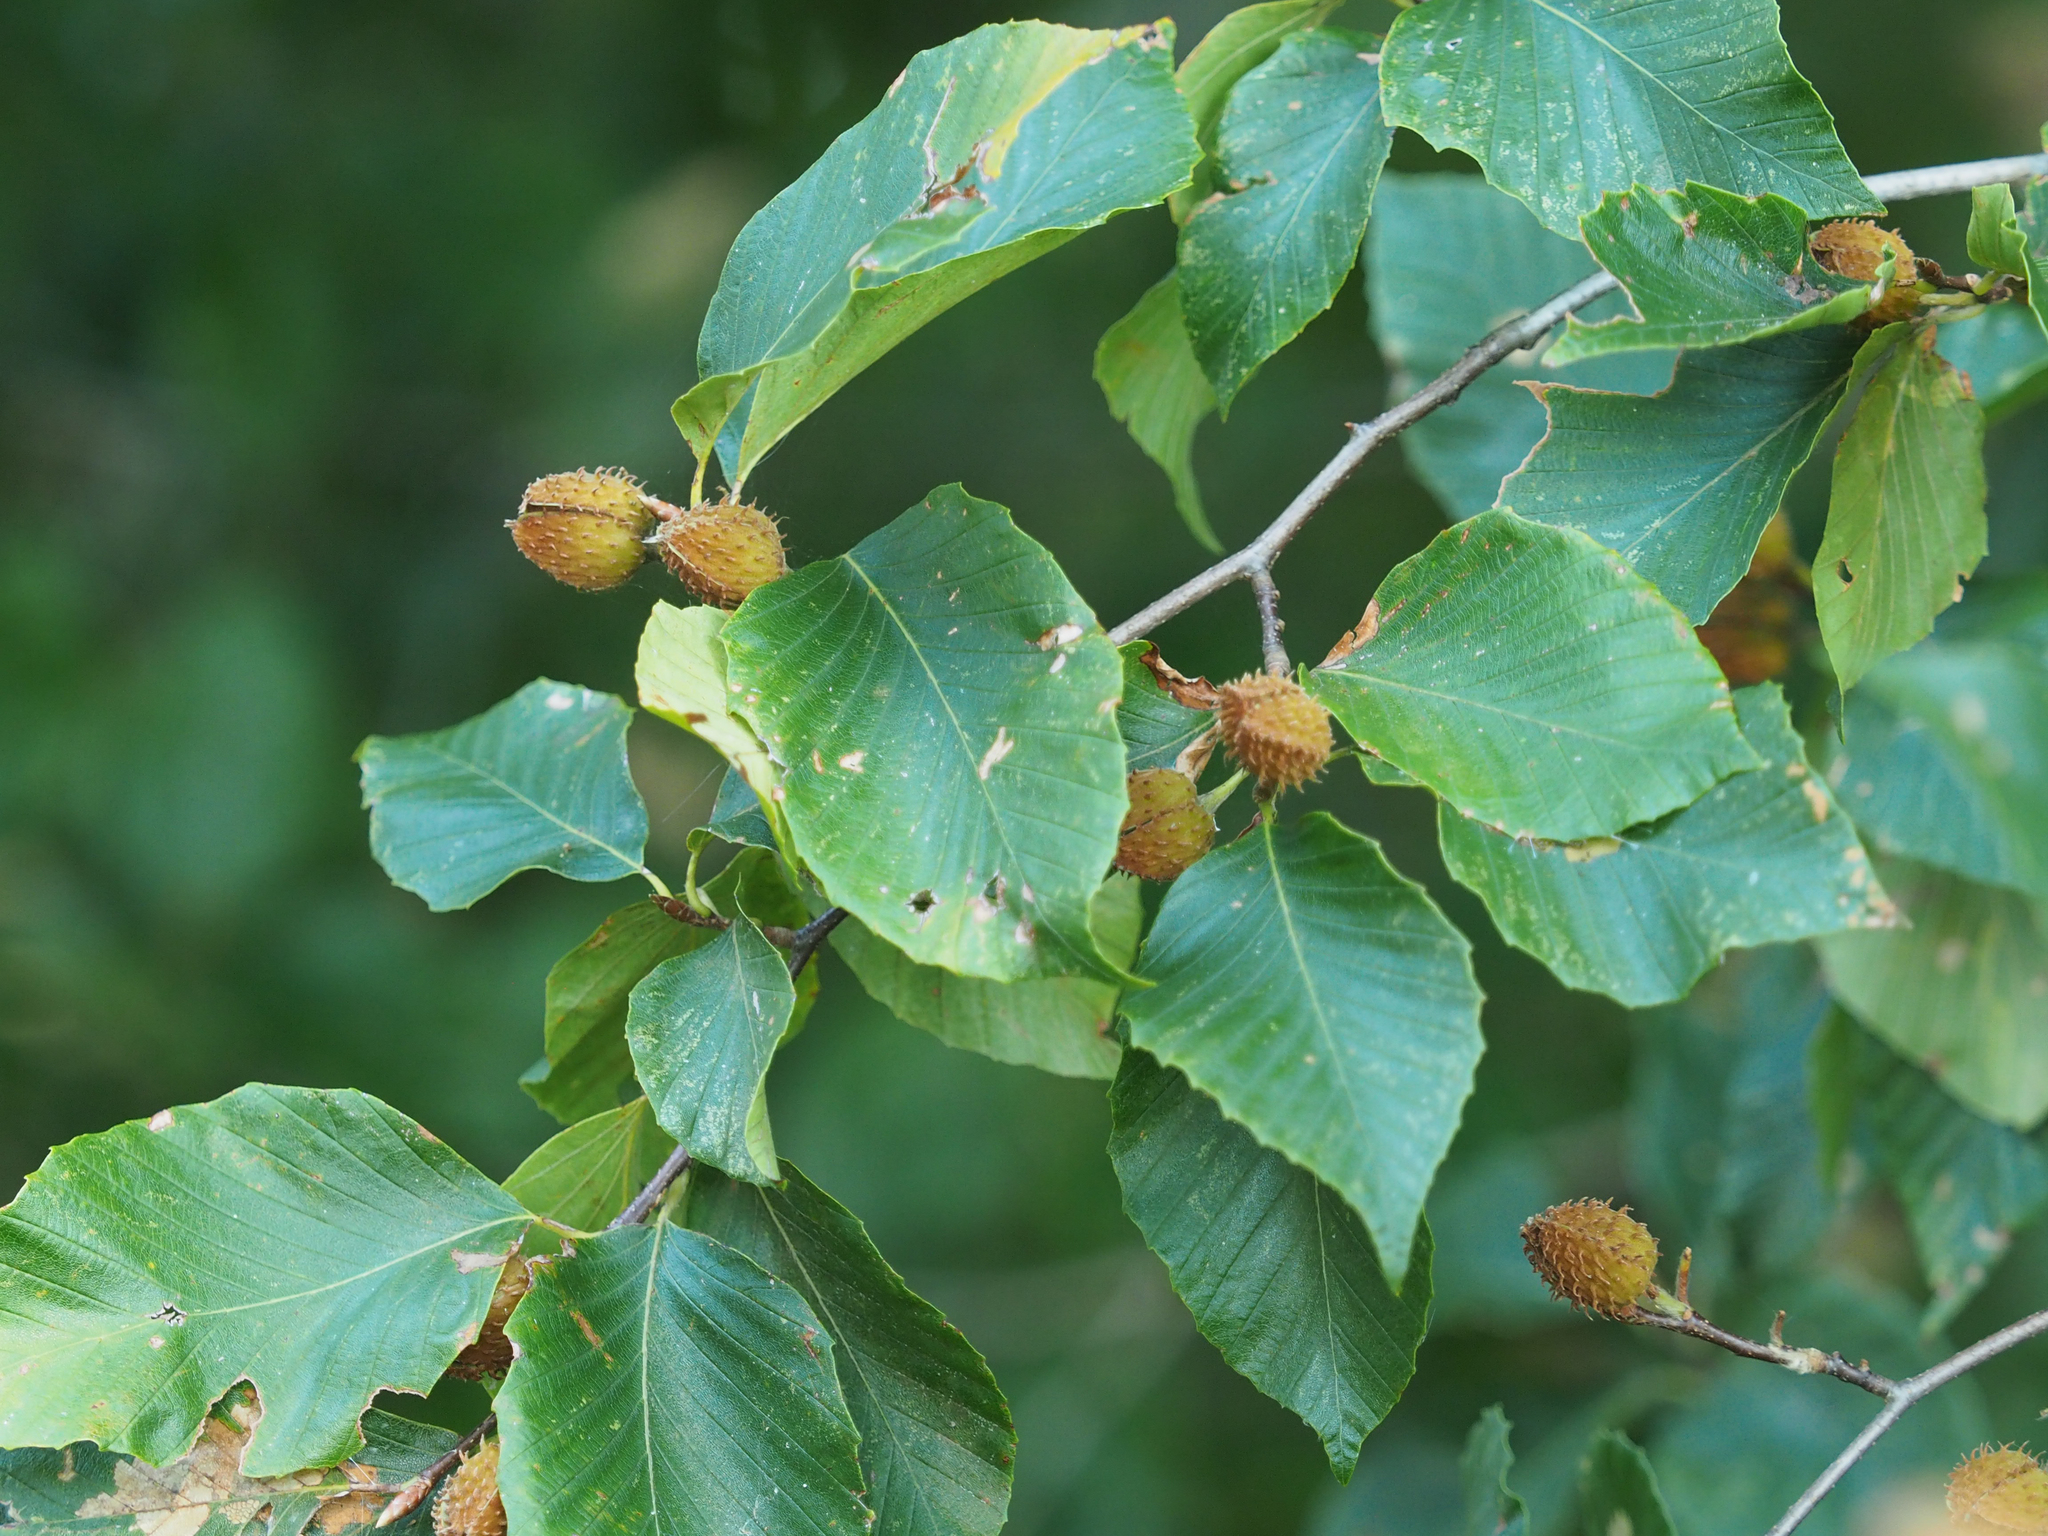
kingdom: Plantae
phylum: Tracheophyta
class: Magnoliopsida
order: Fagales
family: Fagaceae
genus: Fagus
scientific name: Fagus grandifolia
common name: American beech
